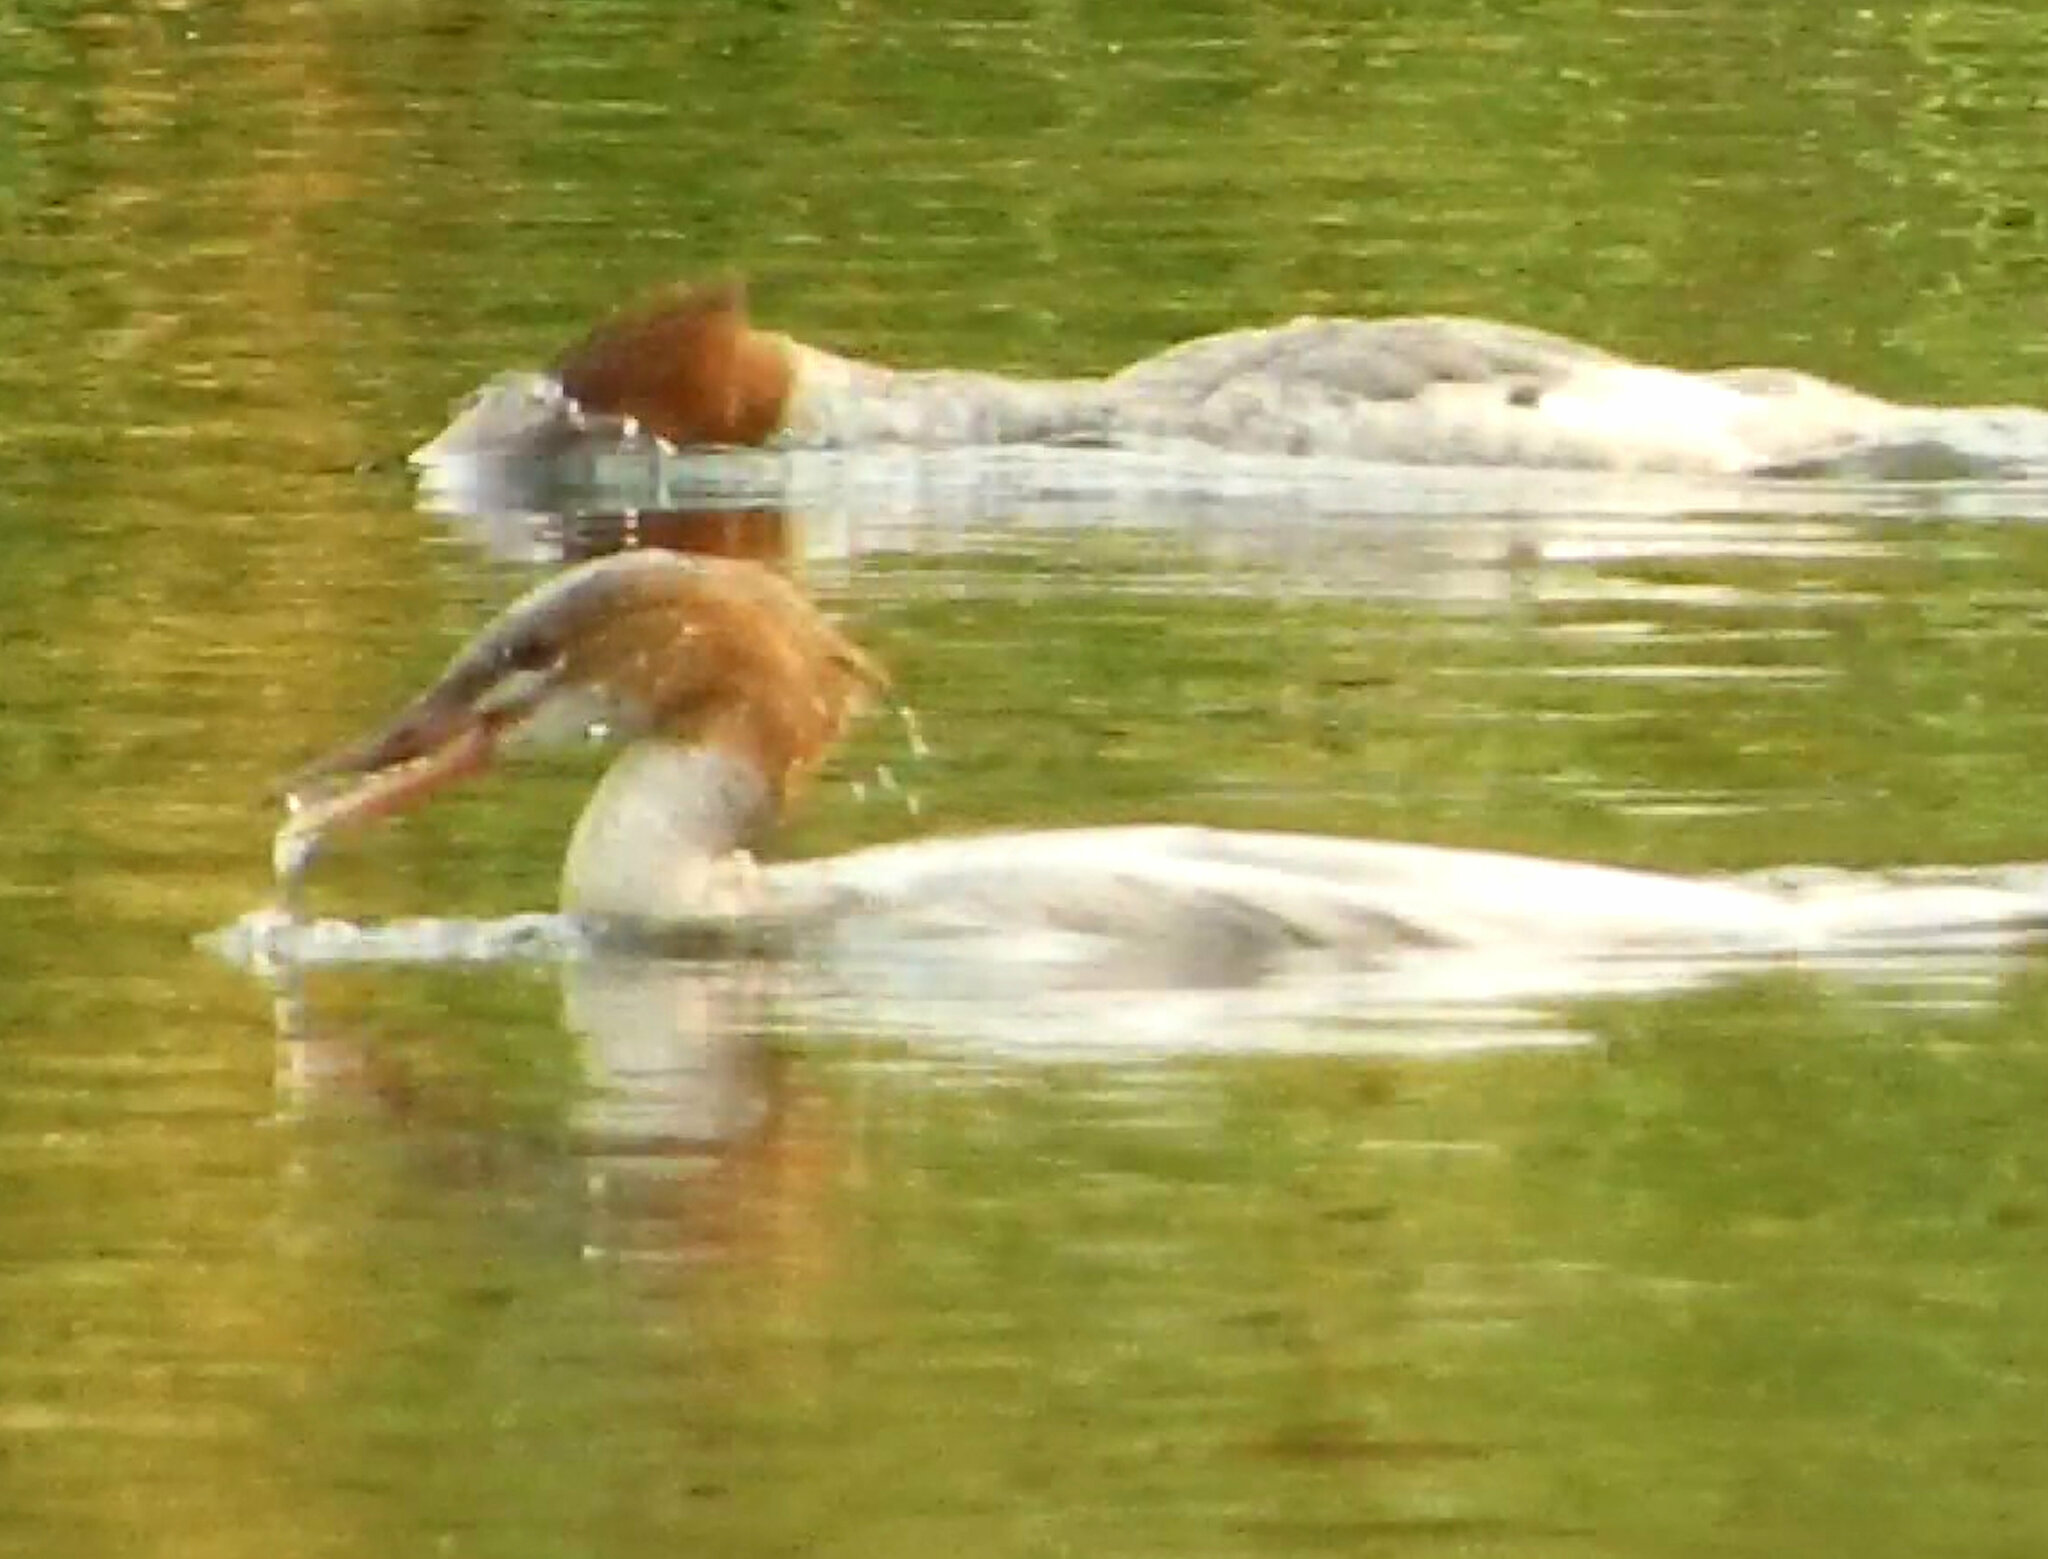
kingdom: Animalia
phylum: Chordata
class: Aves
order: Anseriformes
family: Anatidae
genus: Mergus
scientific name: Mergus merganser
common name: Common merganser
